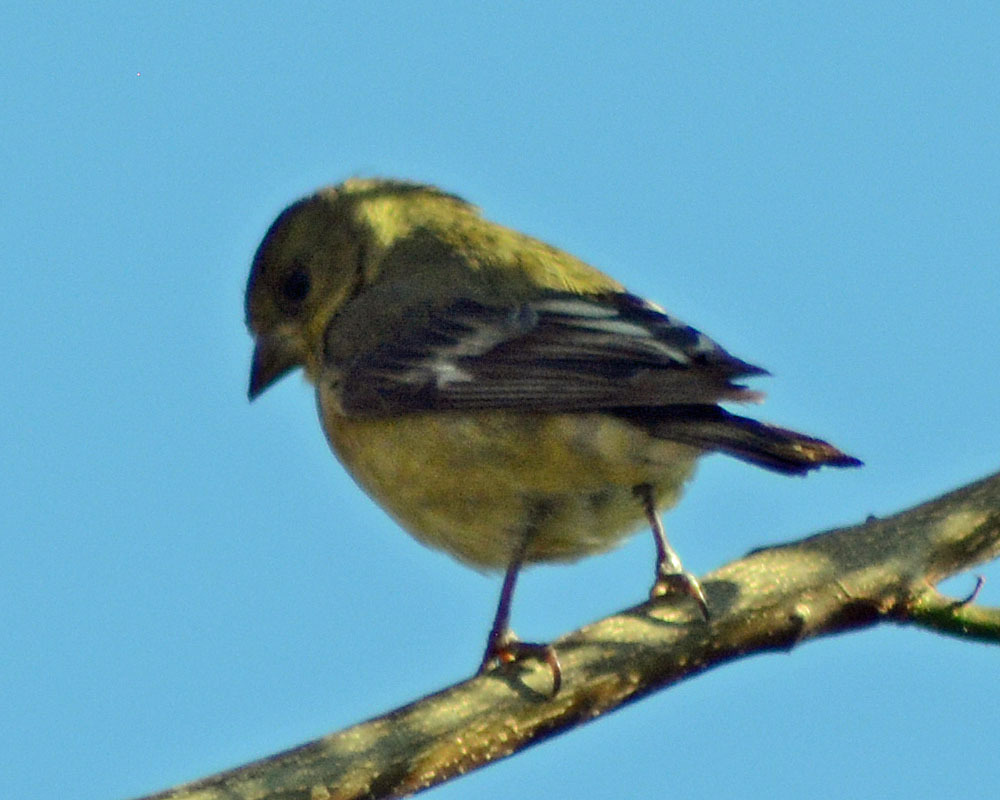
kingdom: Animalia
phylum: Chordata
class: Aves
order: Passeriformes
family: Fringillidae
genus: Spinus
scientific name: Spinus psaltria
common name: Lesser goldfinch
